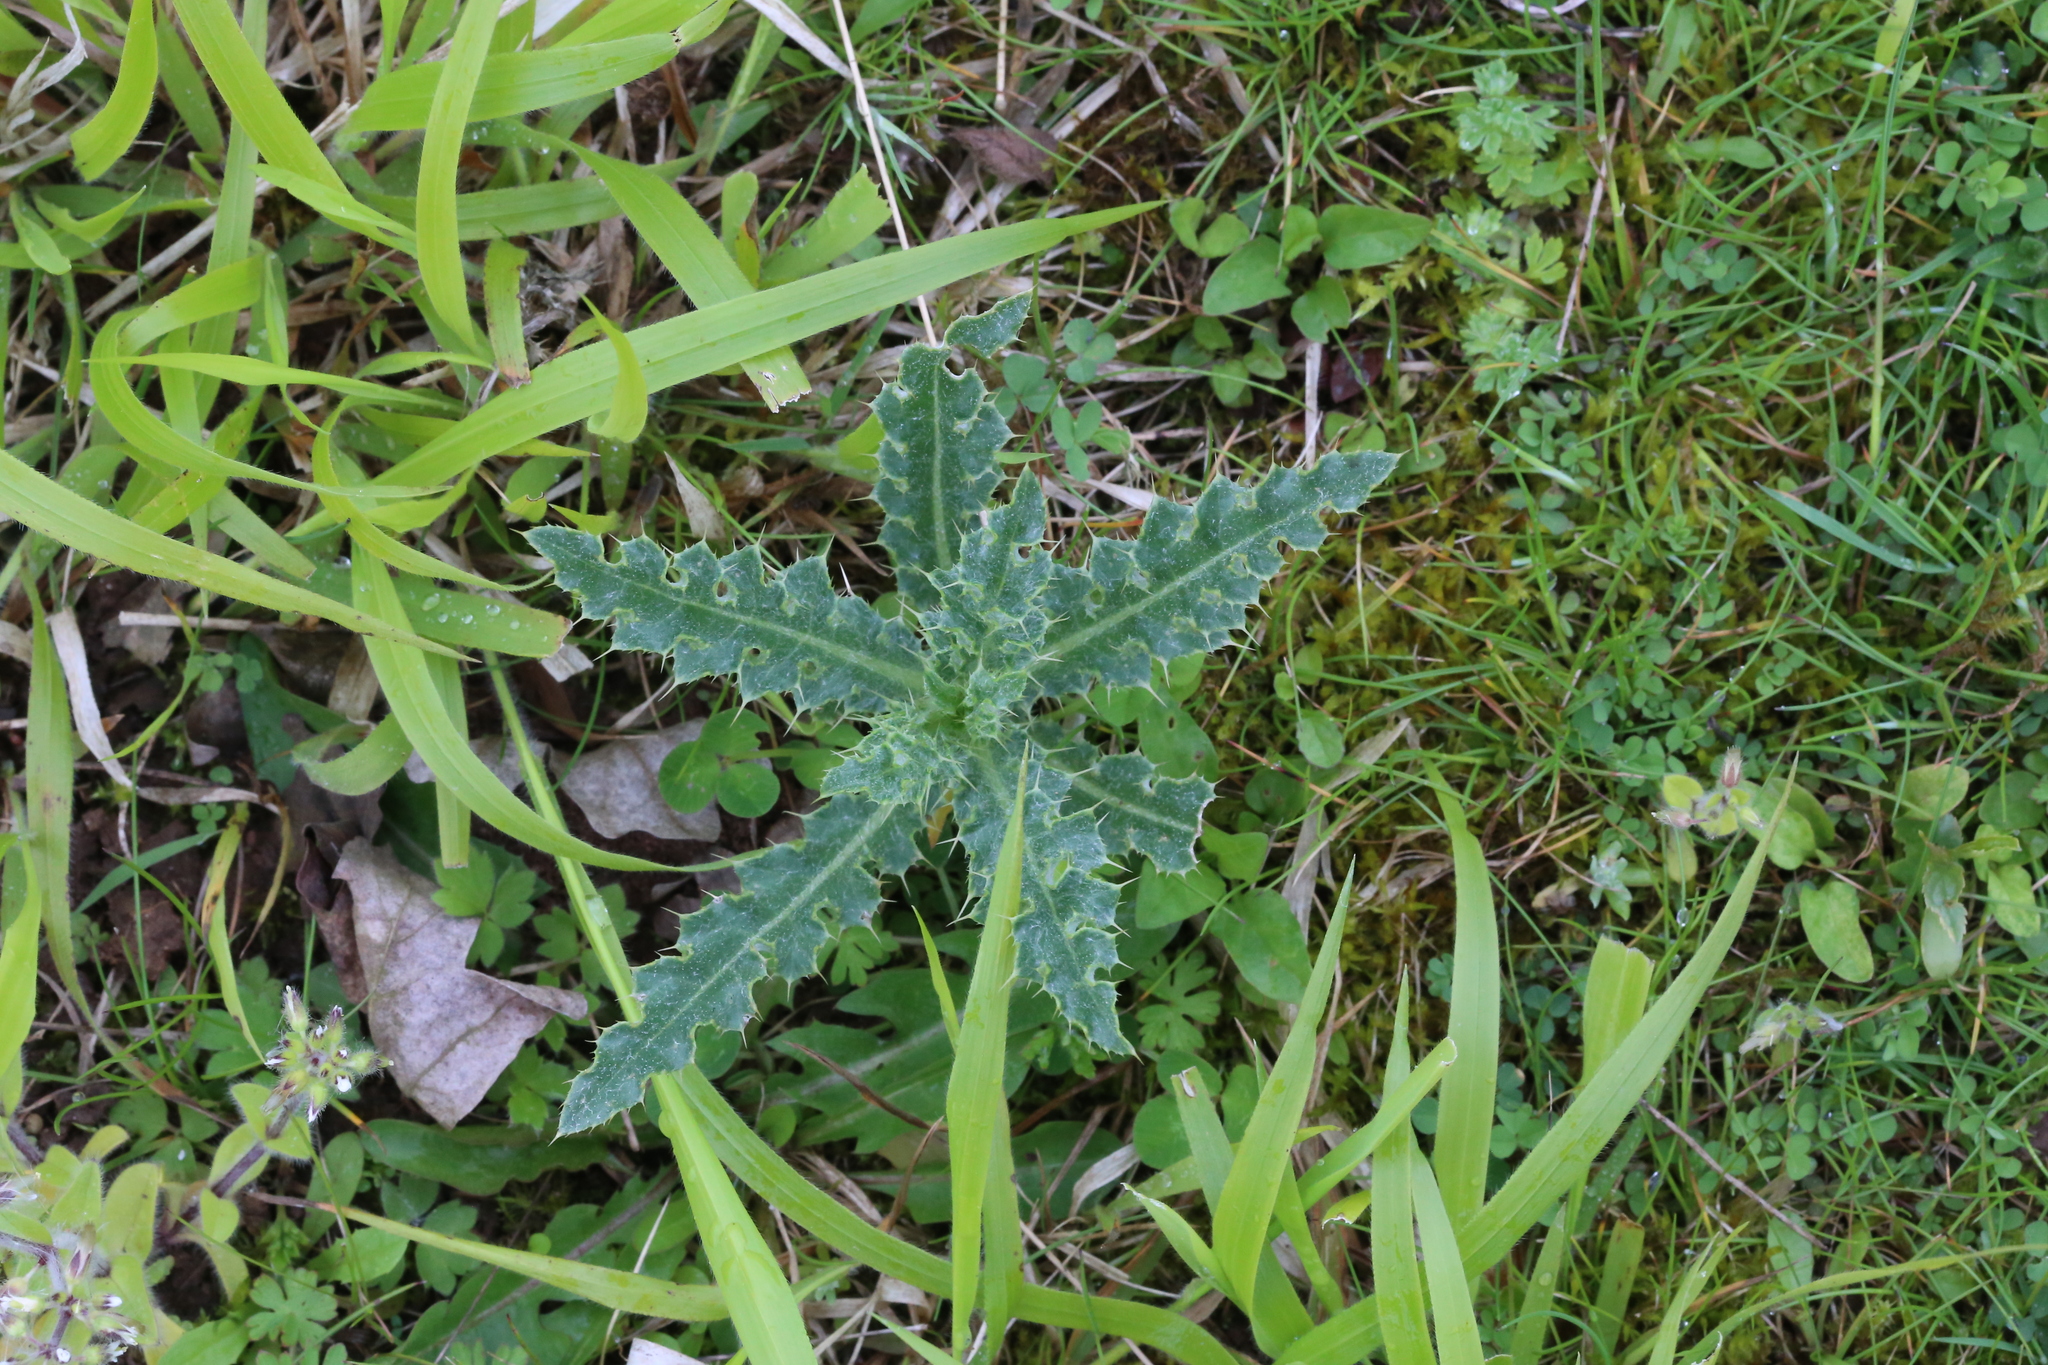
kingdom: Plantae
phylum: Tracheophyta
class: Magnoliopsida
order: Asterales
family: Asteraceae
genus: Cirsium
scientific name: Cirsium arvense
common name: Creeping thistle
